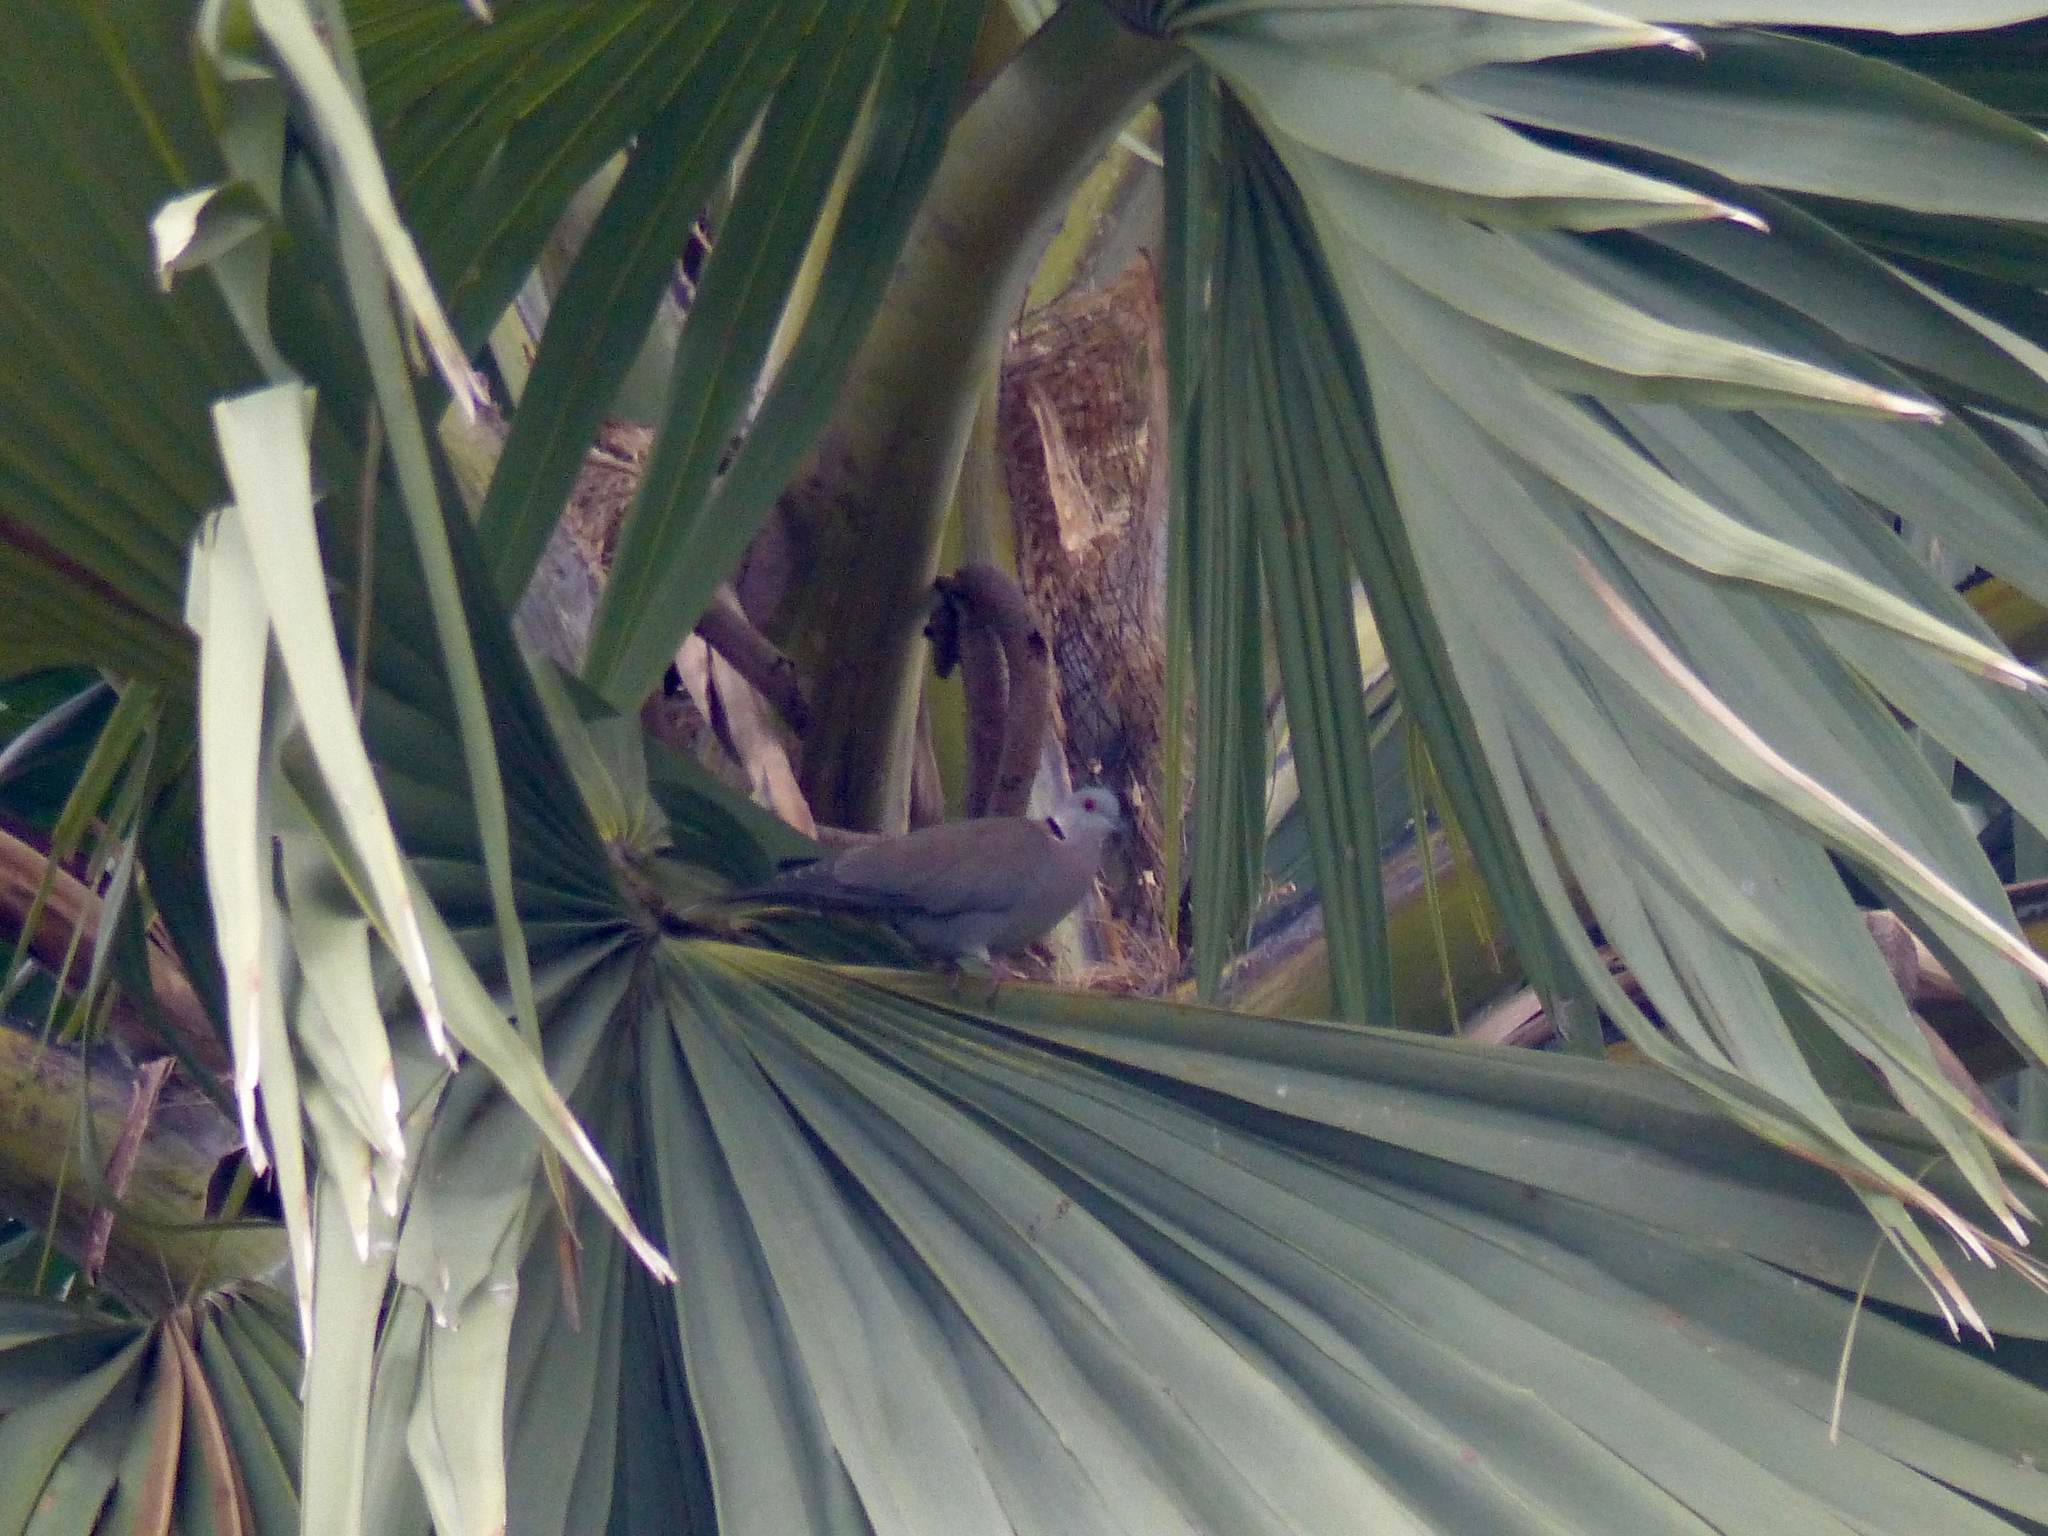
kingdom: Animalia
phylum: Chordata
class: Aves
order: Columbiformes
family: Columbidae
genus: Streptopelia
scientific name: Streptopelia semitorquata
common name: Red-eyed dove
